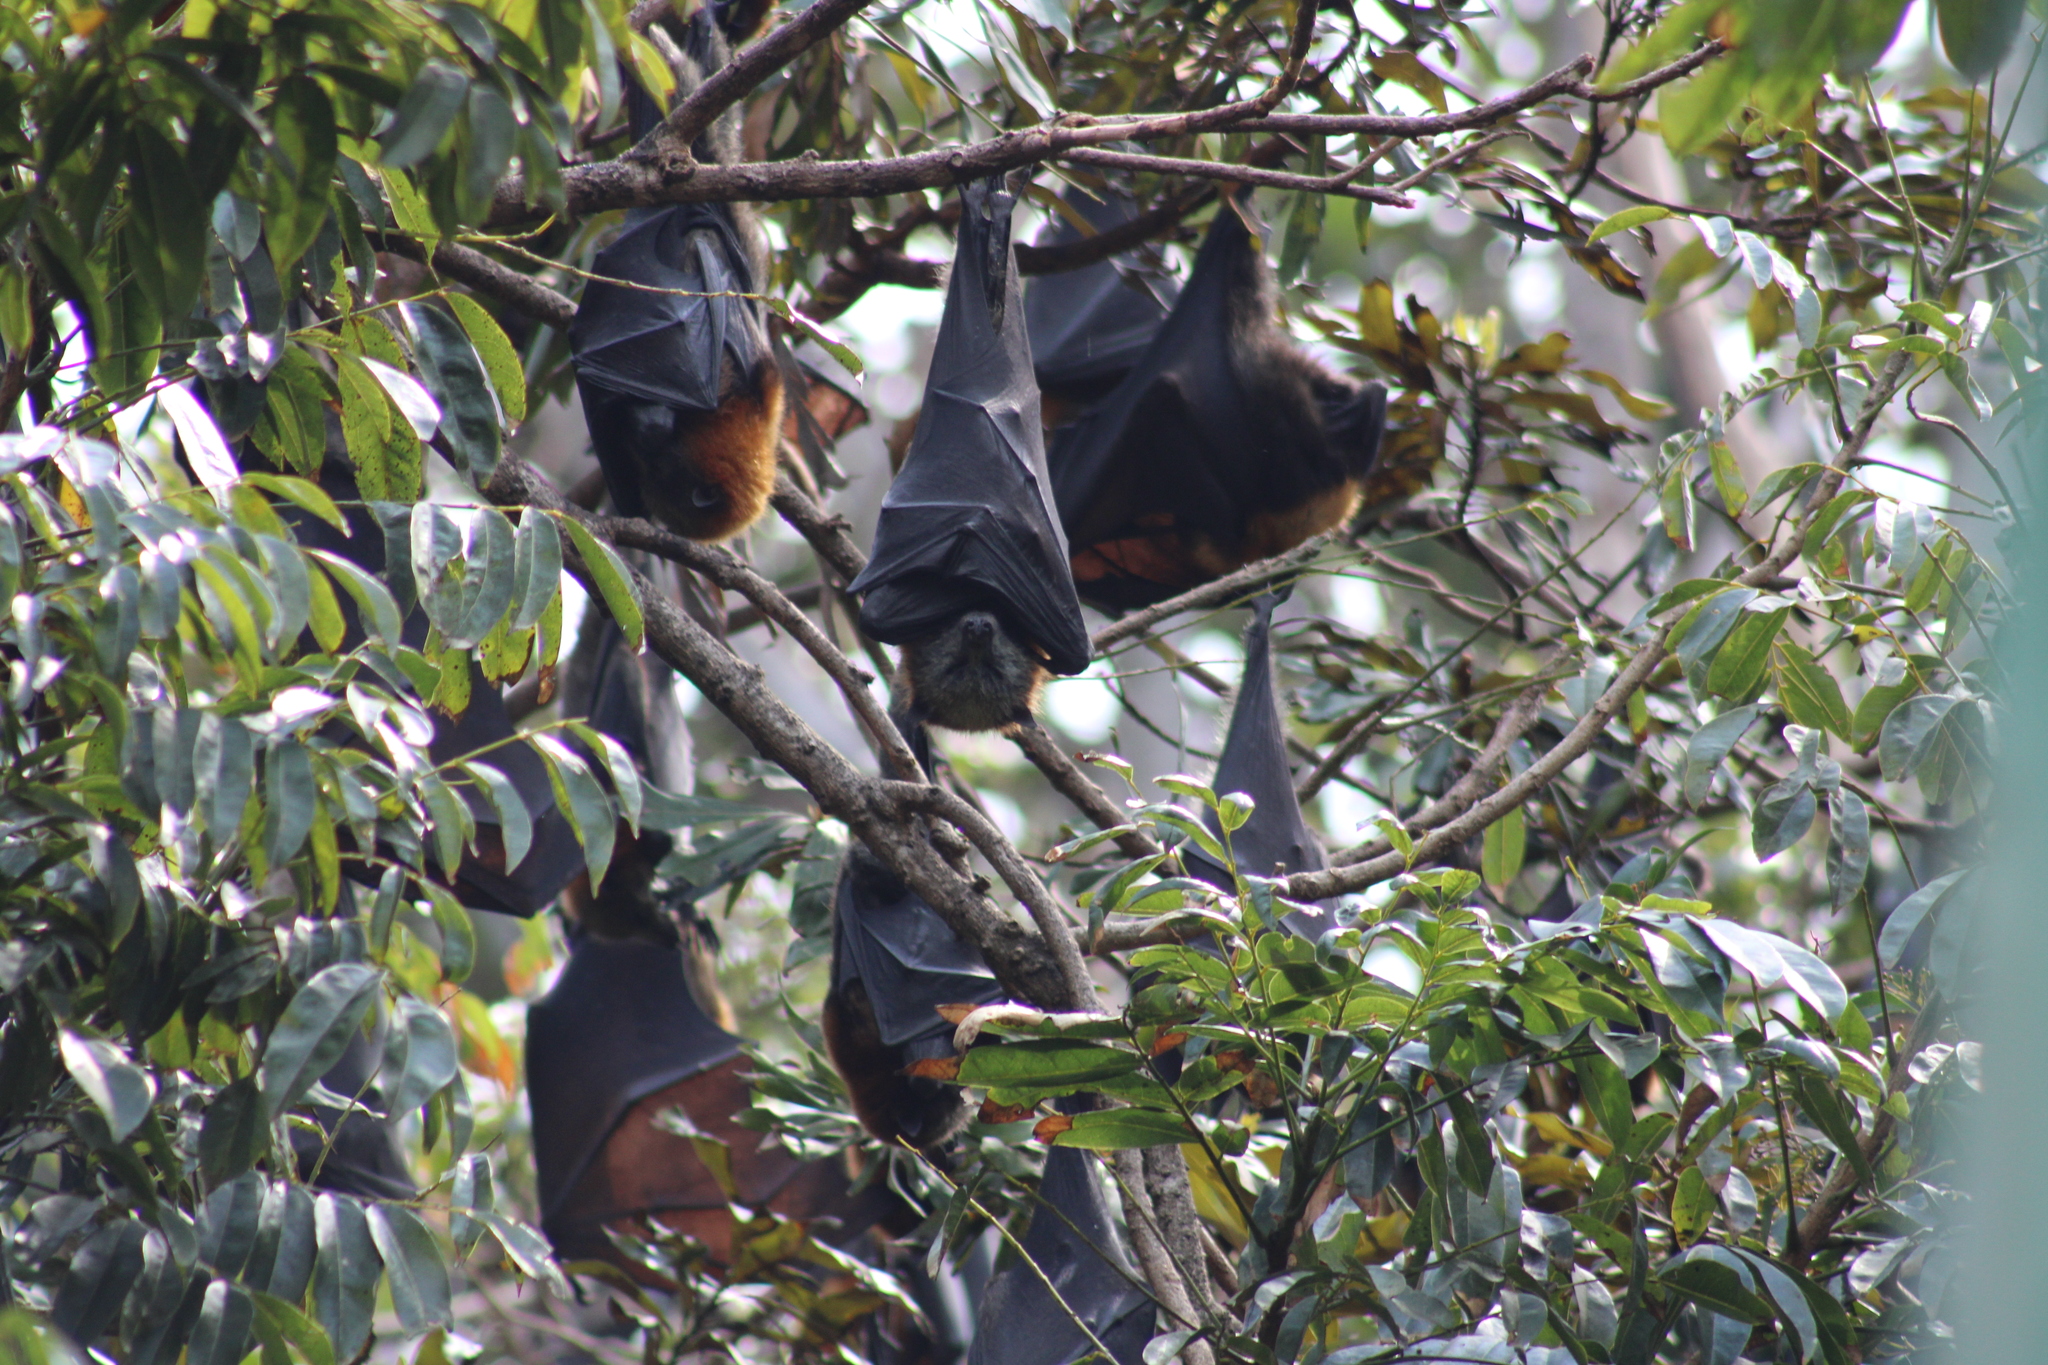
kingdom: Animalia
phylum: Chordata
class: Mammalia
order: Chiroptera
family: Pteropodidae
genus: Pteropus
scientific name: Pteropus poliocephalus
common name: Gray-headed flying fox
